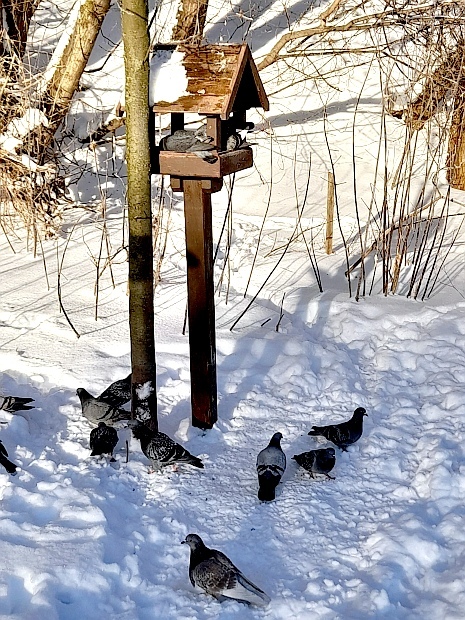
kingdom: Animalia
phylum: Chordata
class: Aves
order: Columbiformes
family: Columbidae
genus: Columba
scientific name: Columba livia
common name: Rock pigeon
